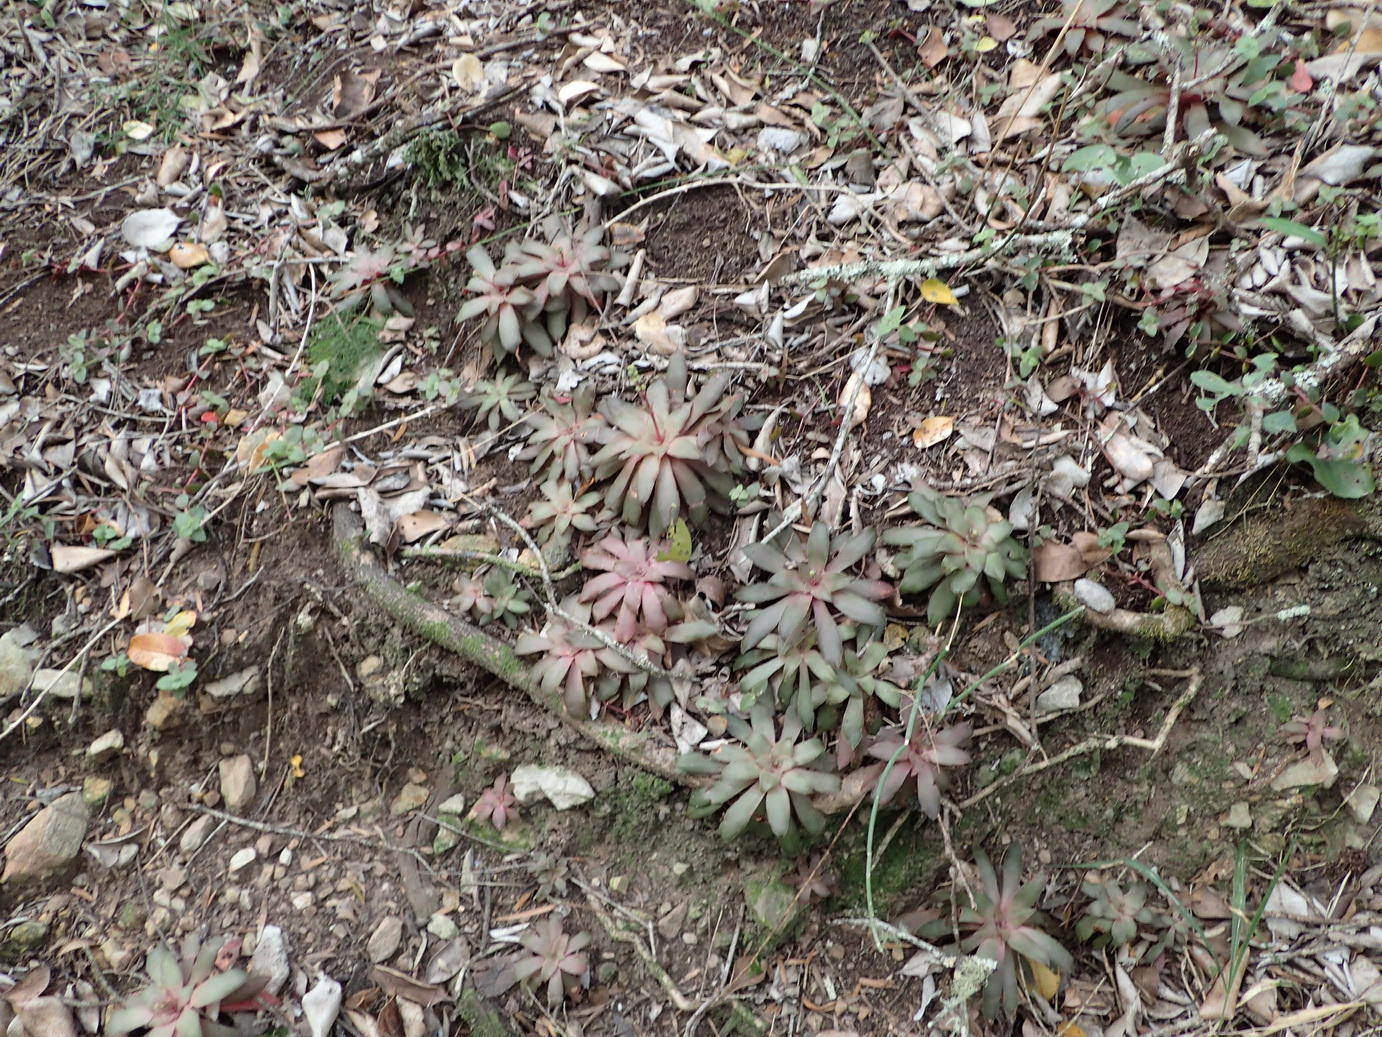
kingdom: Plantae
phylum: Tracheophyta
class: Magnoliopsida
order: Saxifragales
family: Crassulaceae
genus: Crassula
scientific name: Crassula orbicularis
